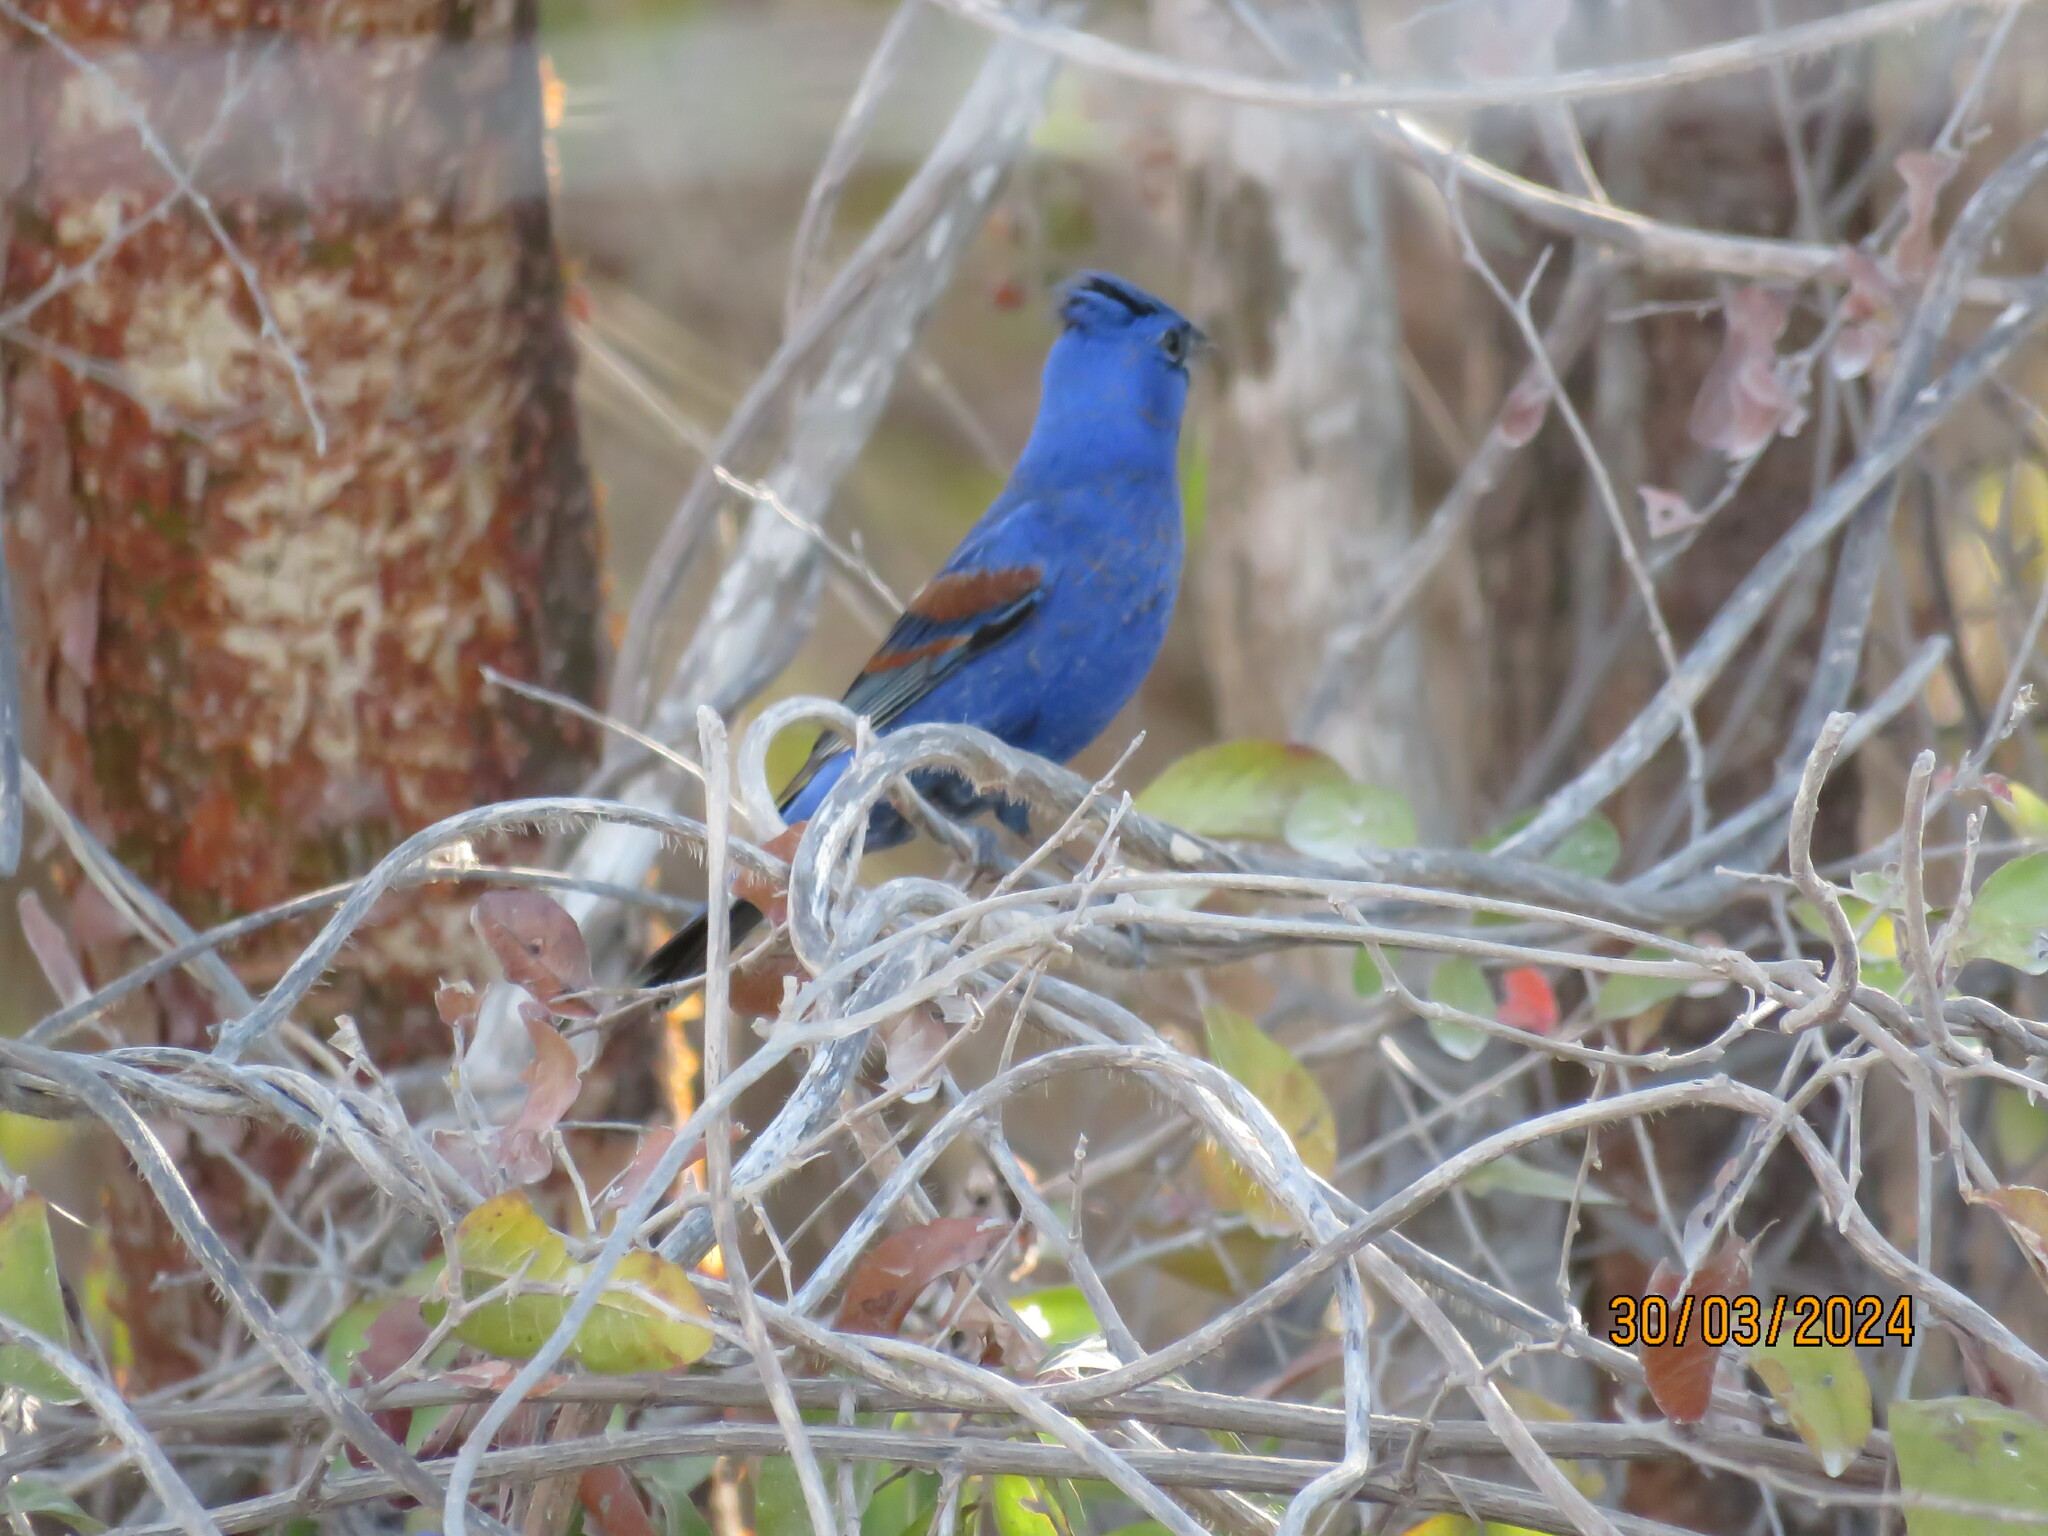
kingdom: Animalia
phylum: Chordata
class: Aves
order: Passeriformes
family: Cardinalidae
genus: Passerina
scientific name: Passerina caerulea
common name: Blue grosbeak
